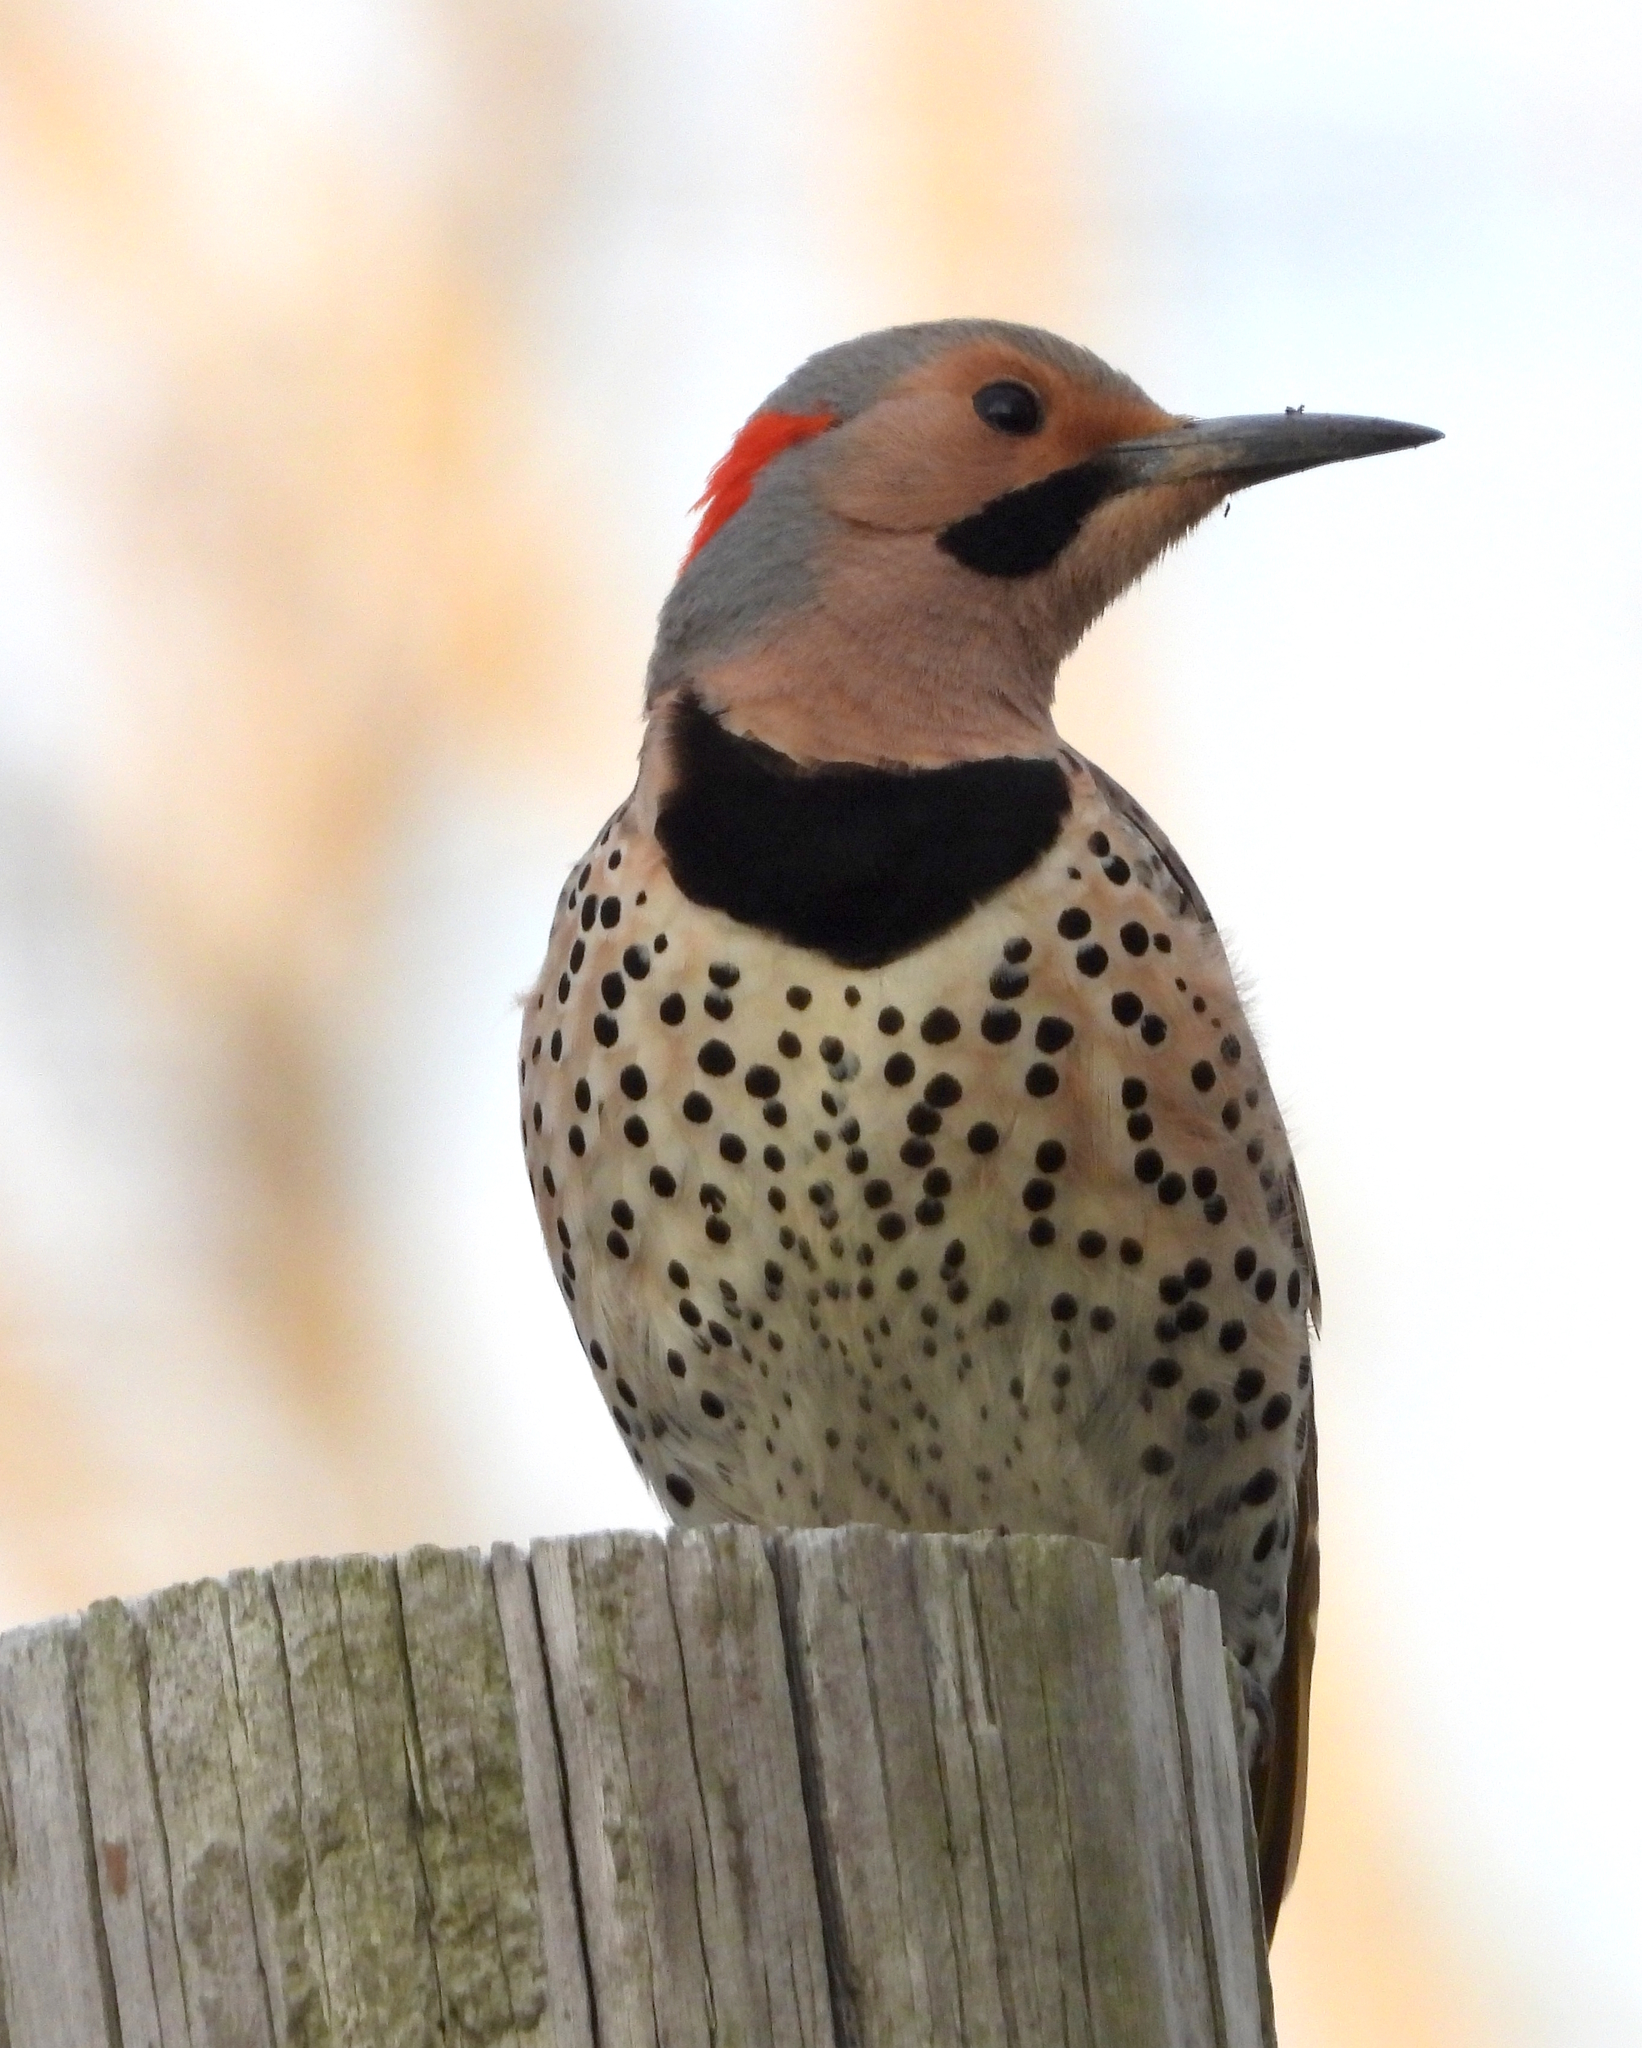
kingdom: Animalia
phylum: Chordata
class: Aves
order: Piciformes
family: Picidae
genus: Colaptes
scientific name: Colaptes auratus
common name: Northern flicker
